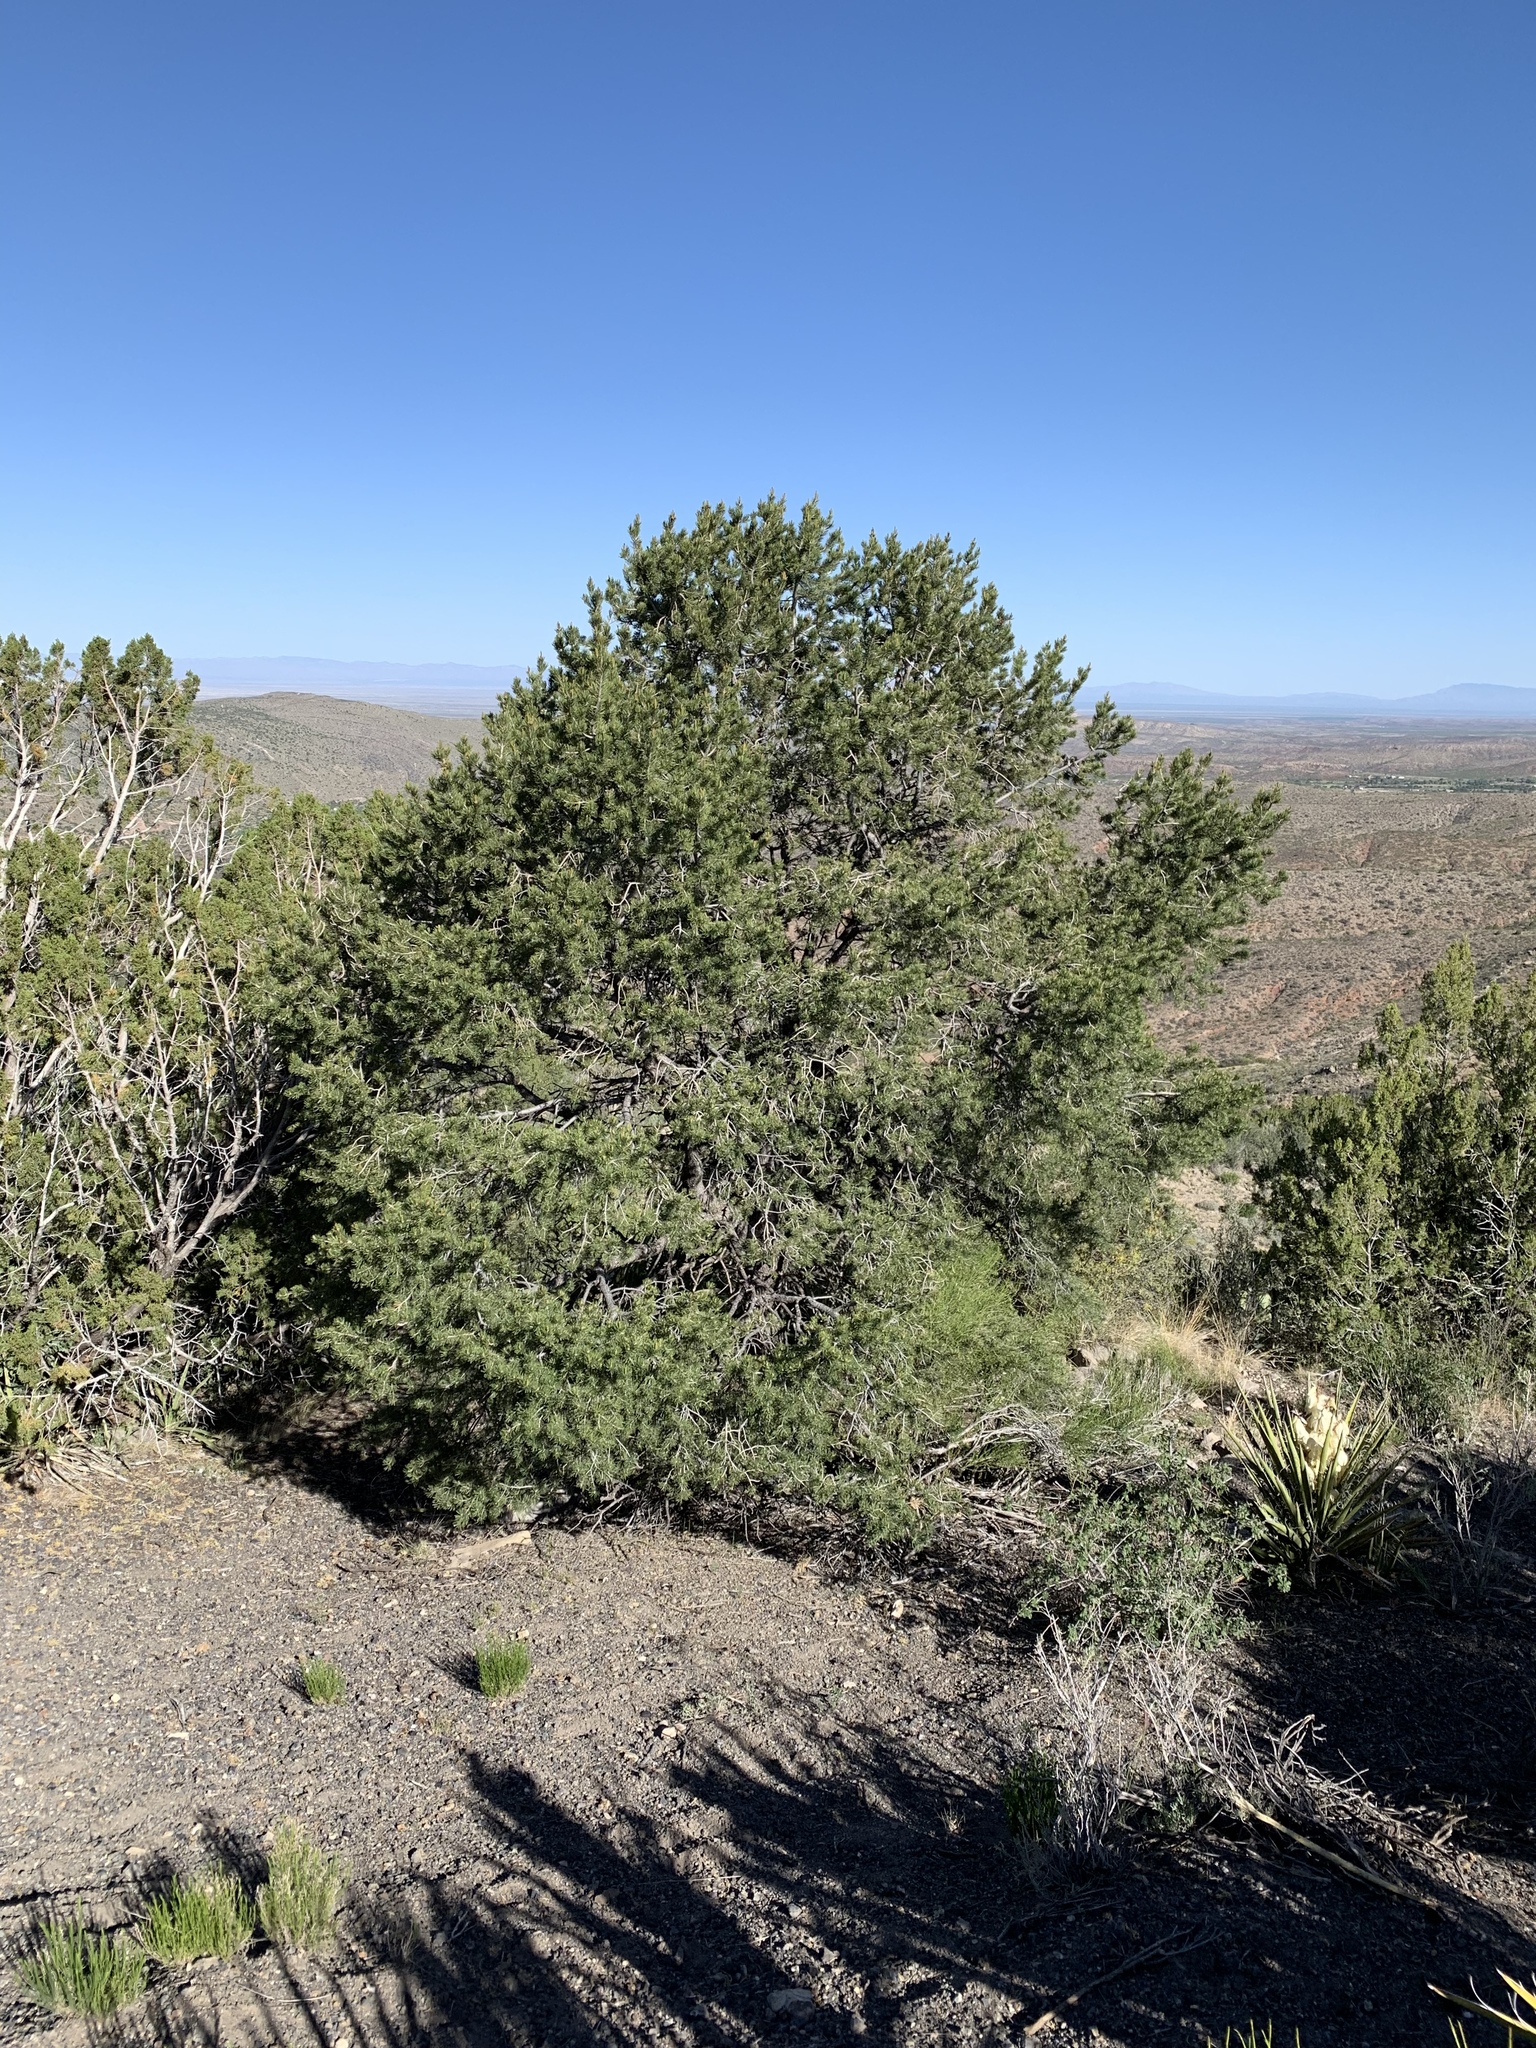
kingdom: Plantae
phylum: Tracheophyta
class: Pinopsida
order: Pinales
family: Pinaceae
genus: Pinus
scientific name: Pinus edulis
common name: Colorado pinyon
